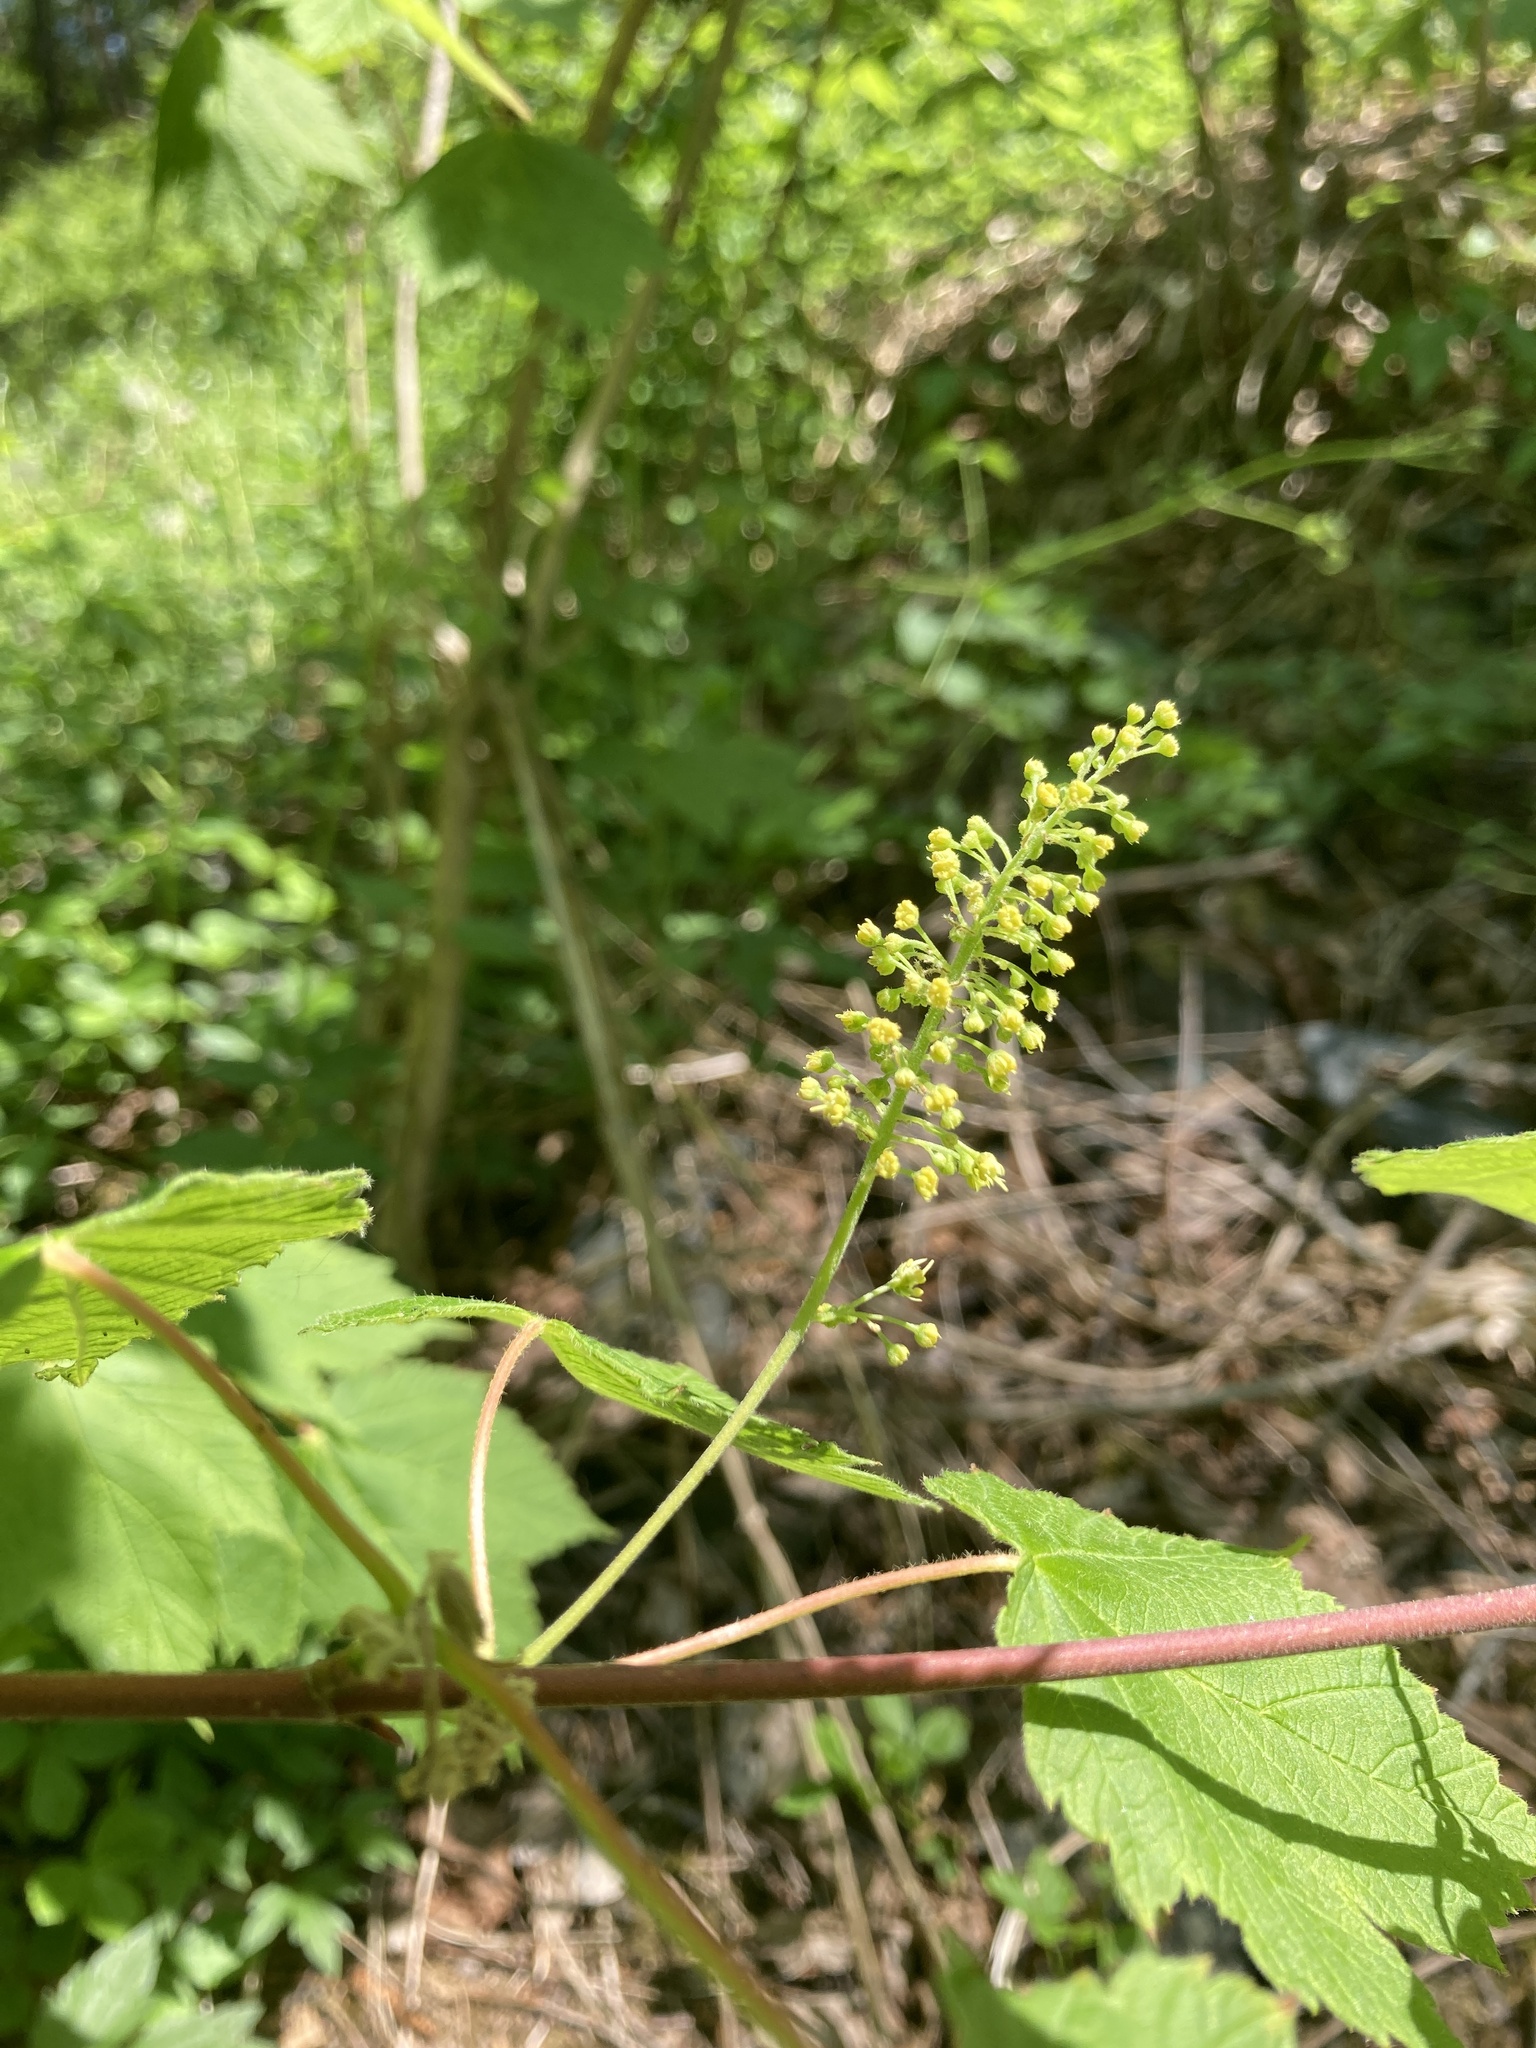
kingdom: Plantae
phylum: Tracheophyta
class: Magnoliopsida
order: Sapindales
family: Sapindaceae
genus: Acer
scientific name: Acer spicatum
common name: Mountain maple
